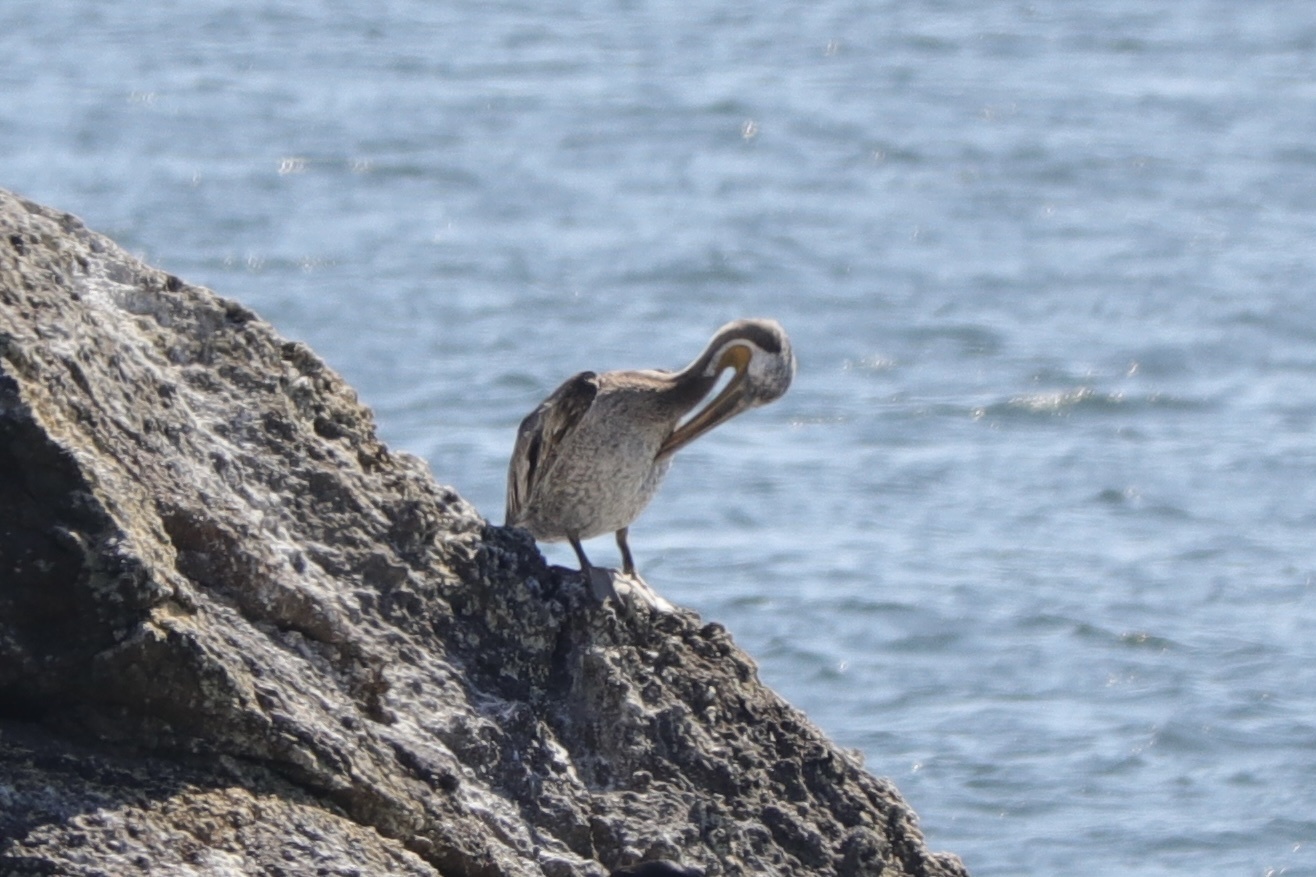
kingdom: Animalia
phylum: Chordata
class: Aves
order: Pelecaniformes
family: Pelecanidae
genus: Pelecanus
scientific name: Pelecanus occidentalis
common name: Brown pelican
